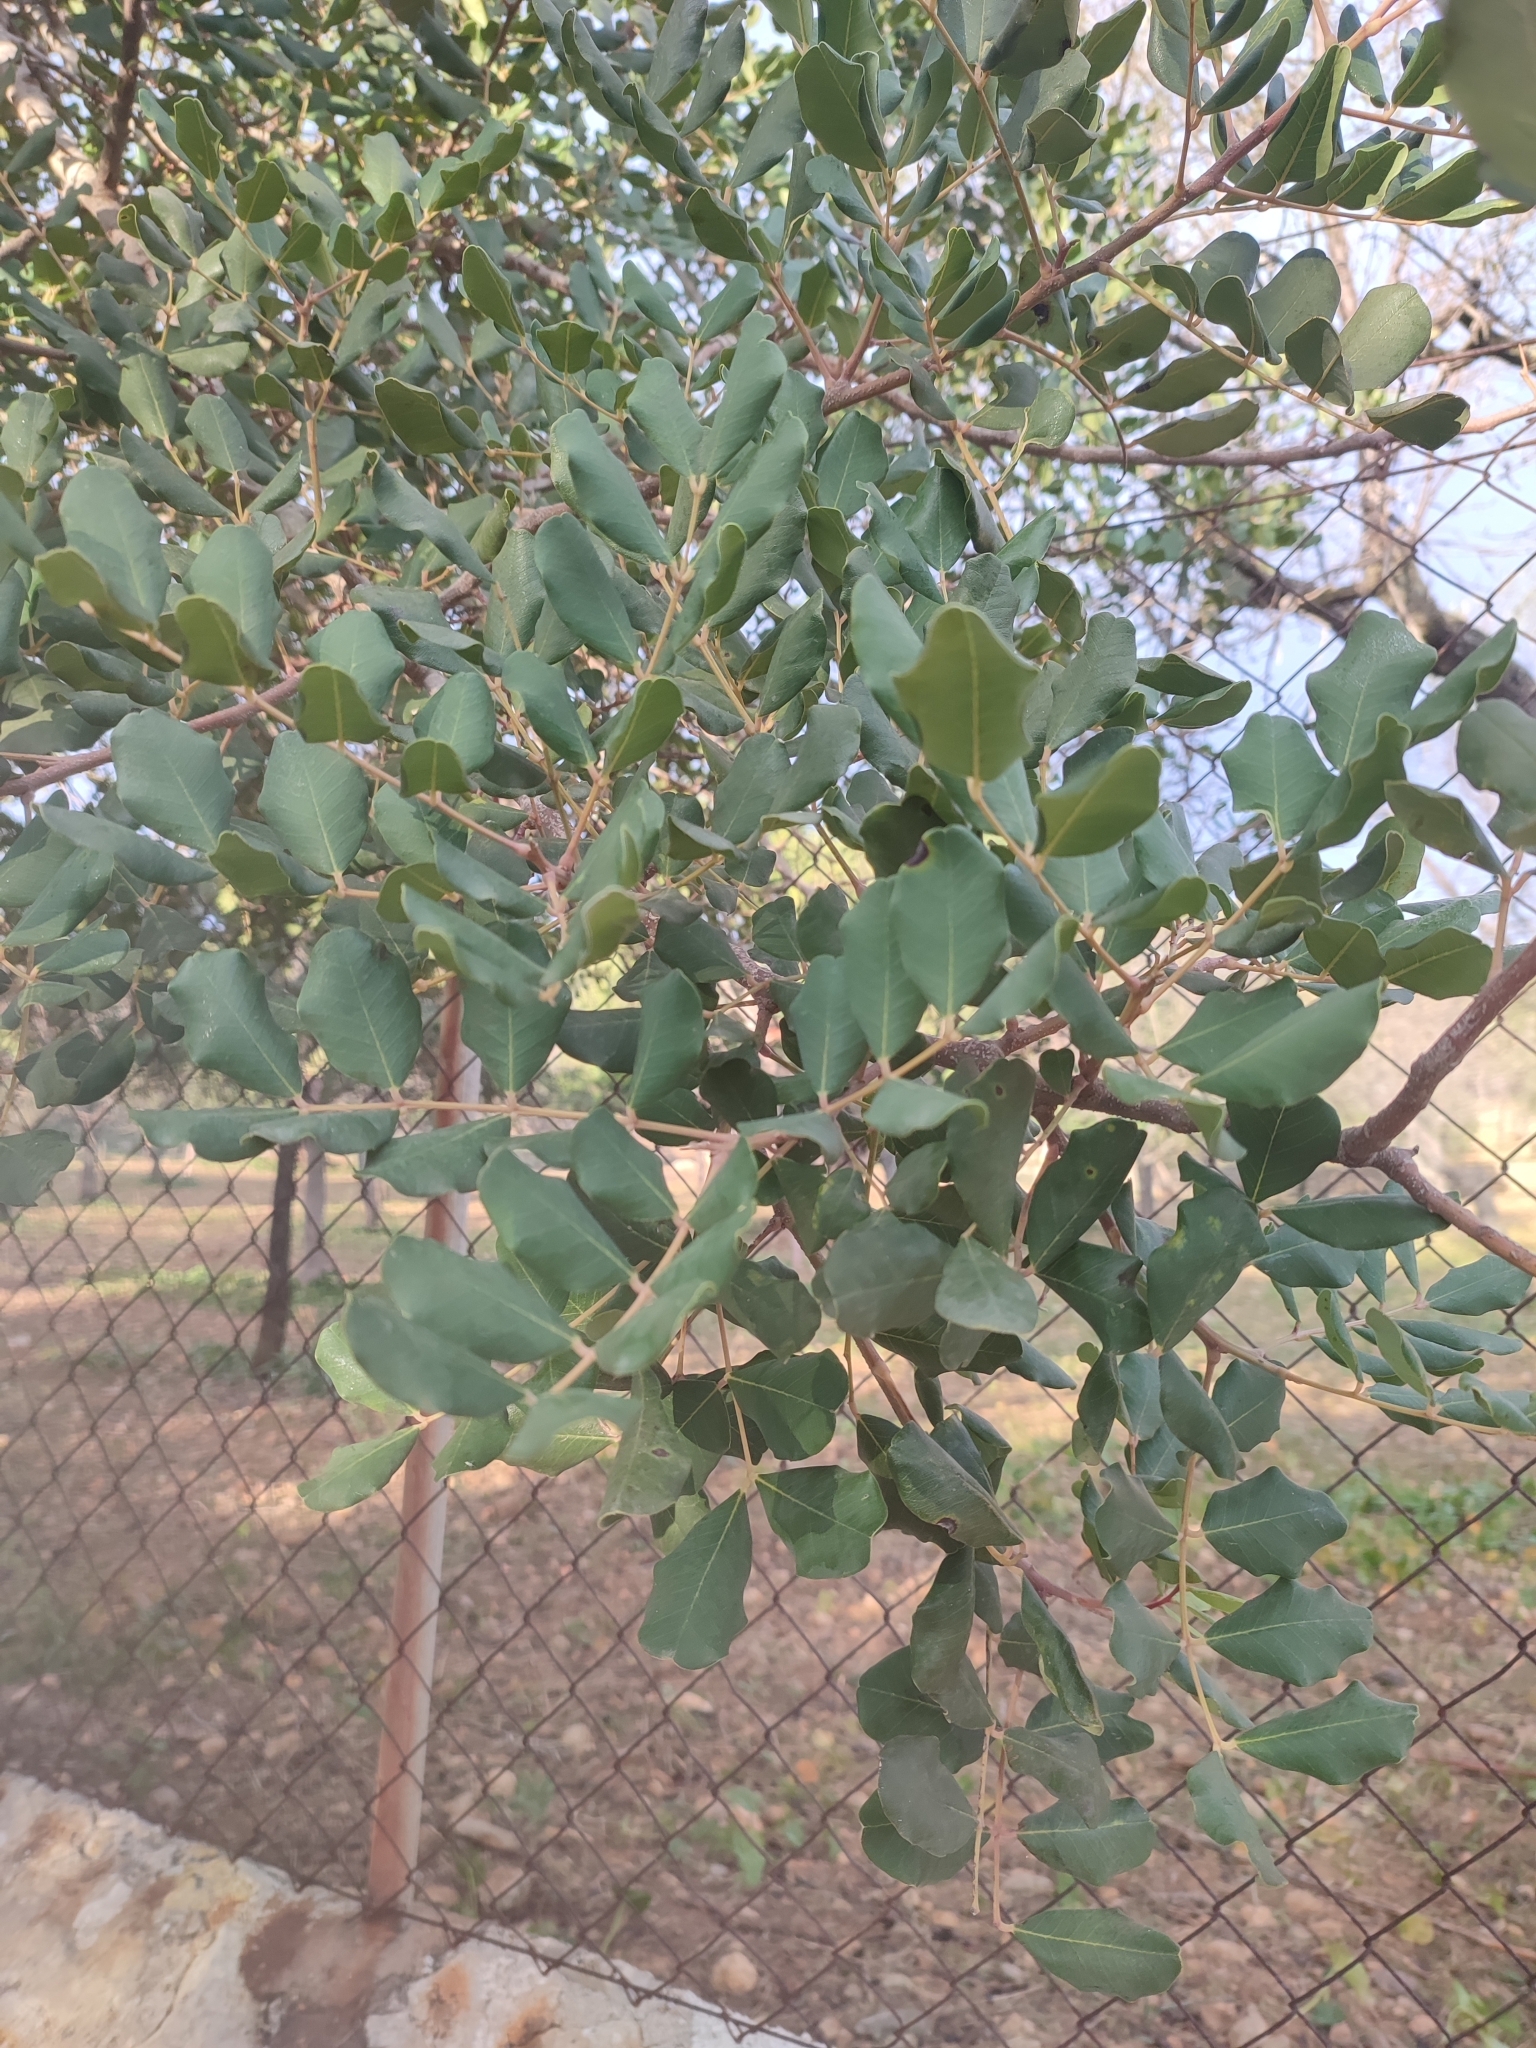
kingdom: Plantae
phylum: Tracheophyta
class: Magnoliopsida
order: Fabales
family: Fabaceae
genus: Ceratonia
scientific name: Ceratonia siliqua
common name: Carob
